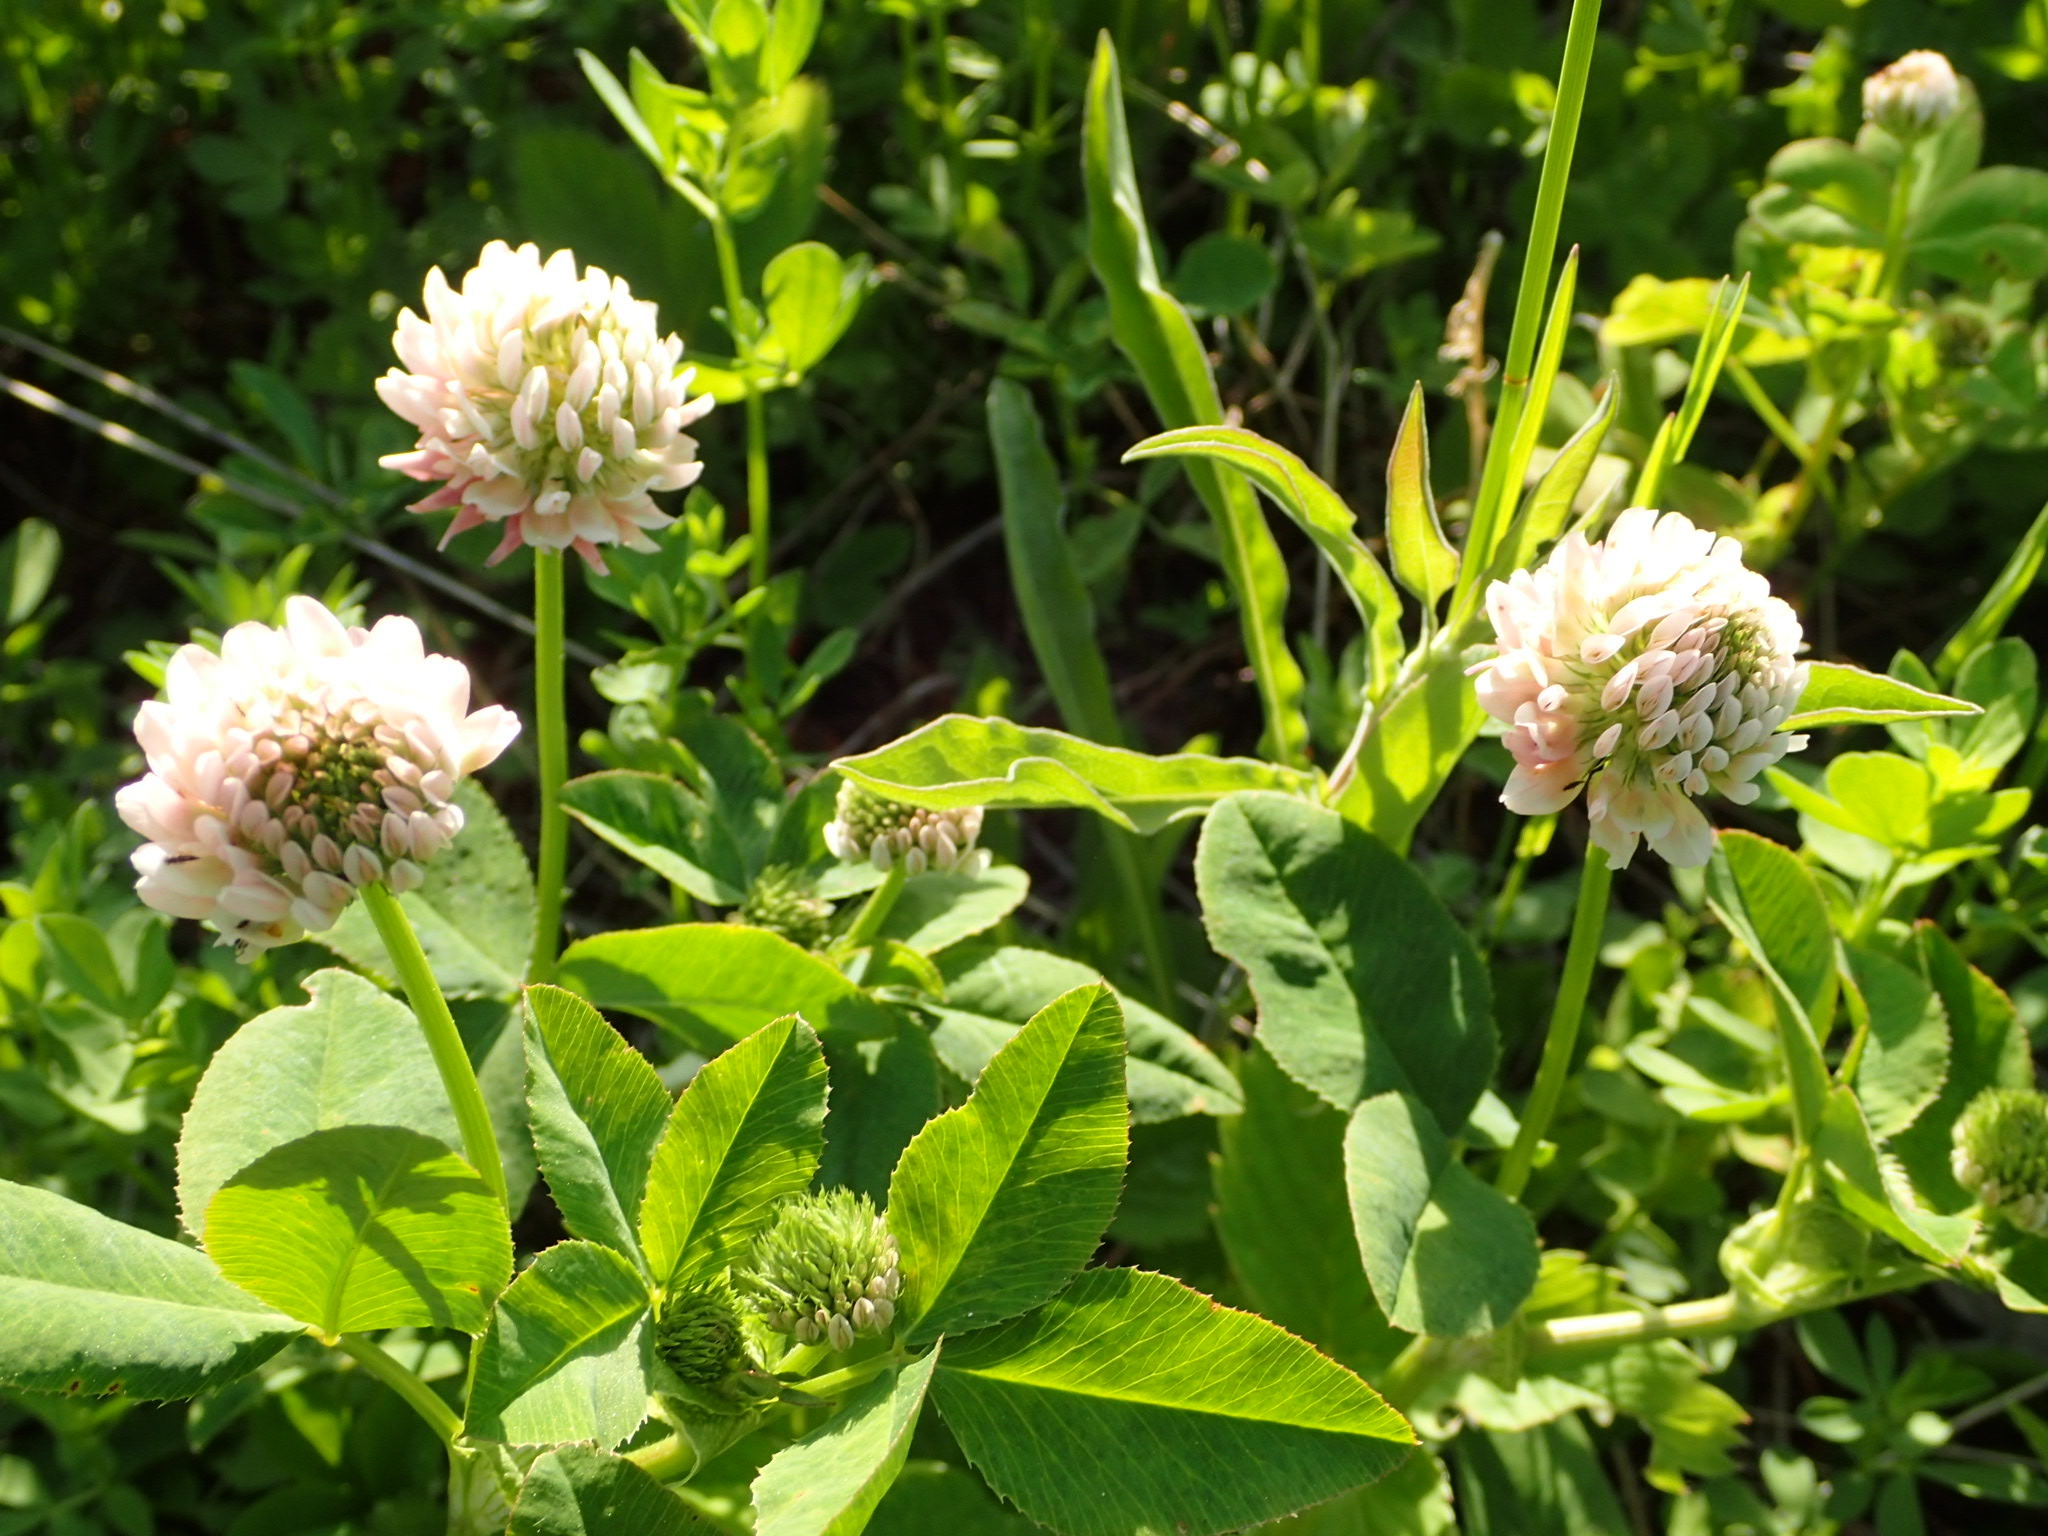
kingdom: Plantae
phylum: Tracheophyta
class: Magnoliopsida
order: Fabales
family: Fabaceae
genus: Trifolium
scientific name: Trifolium hybridum
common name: Alsike clover
